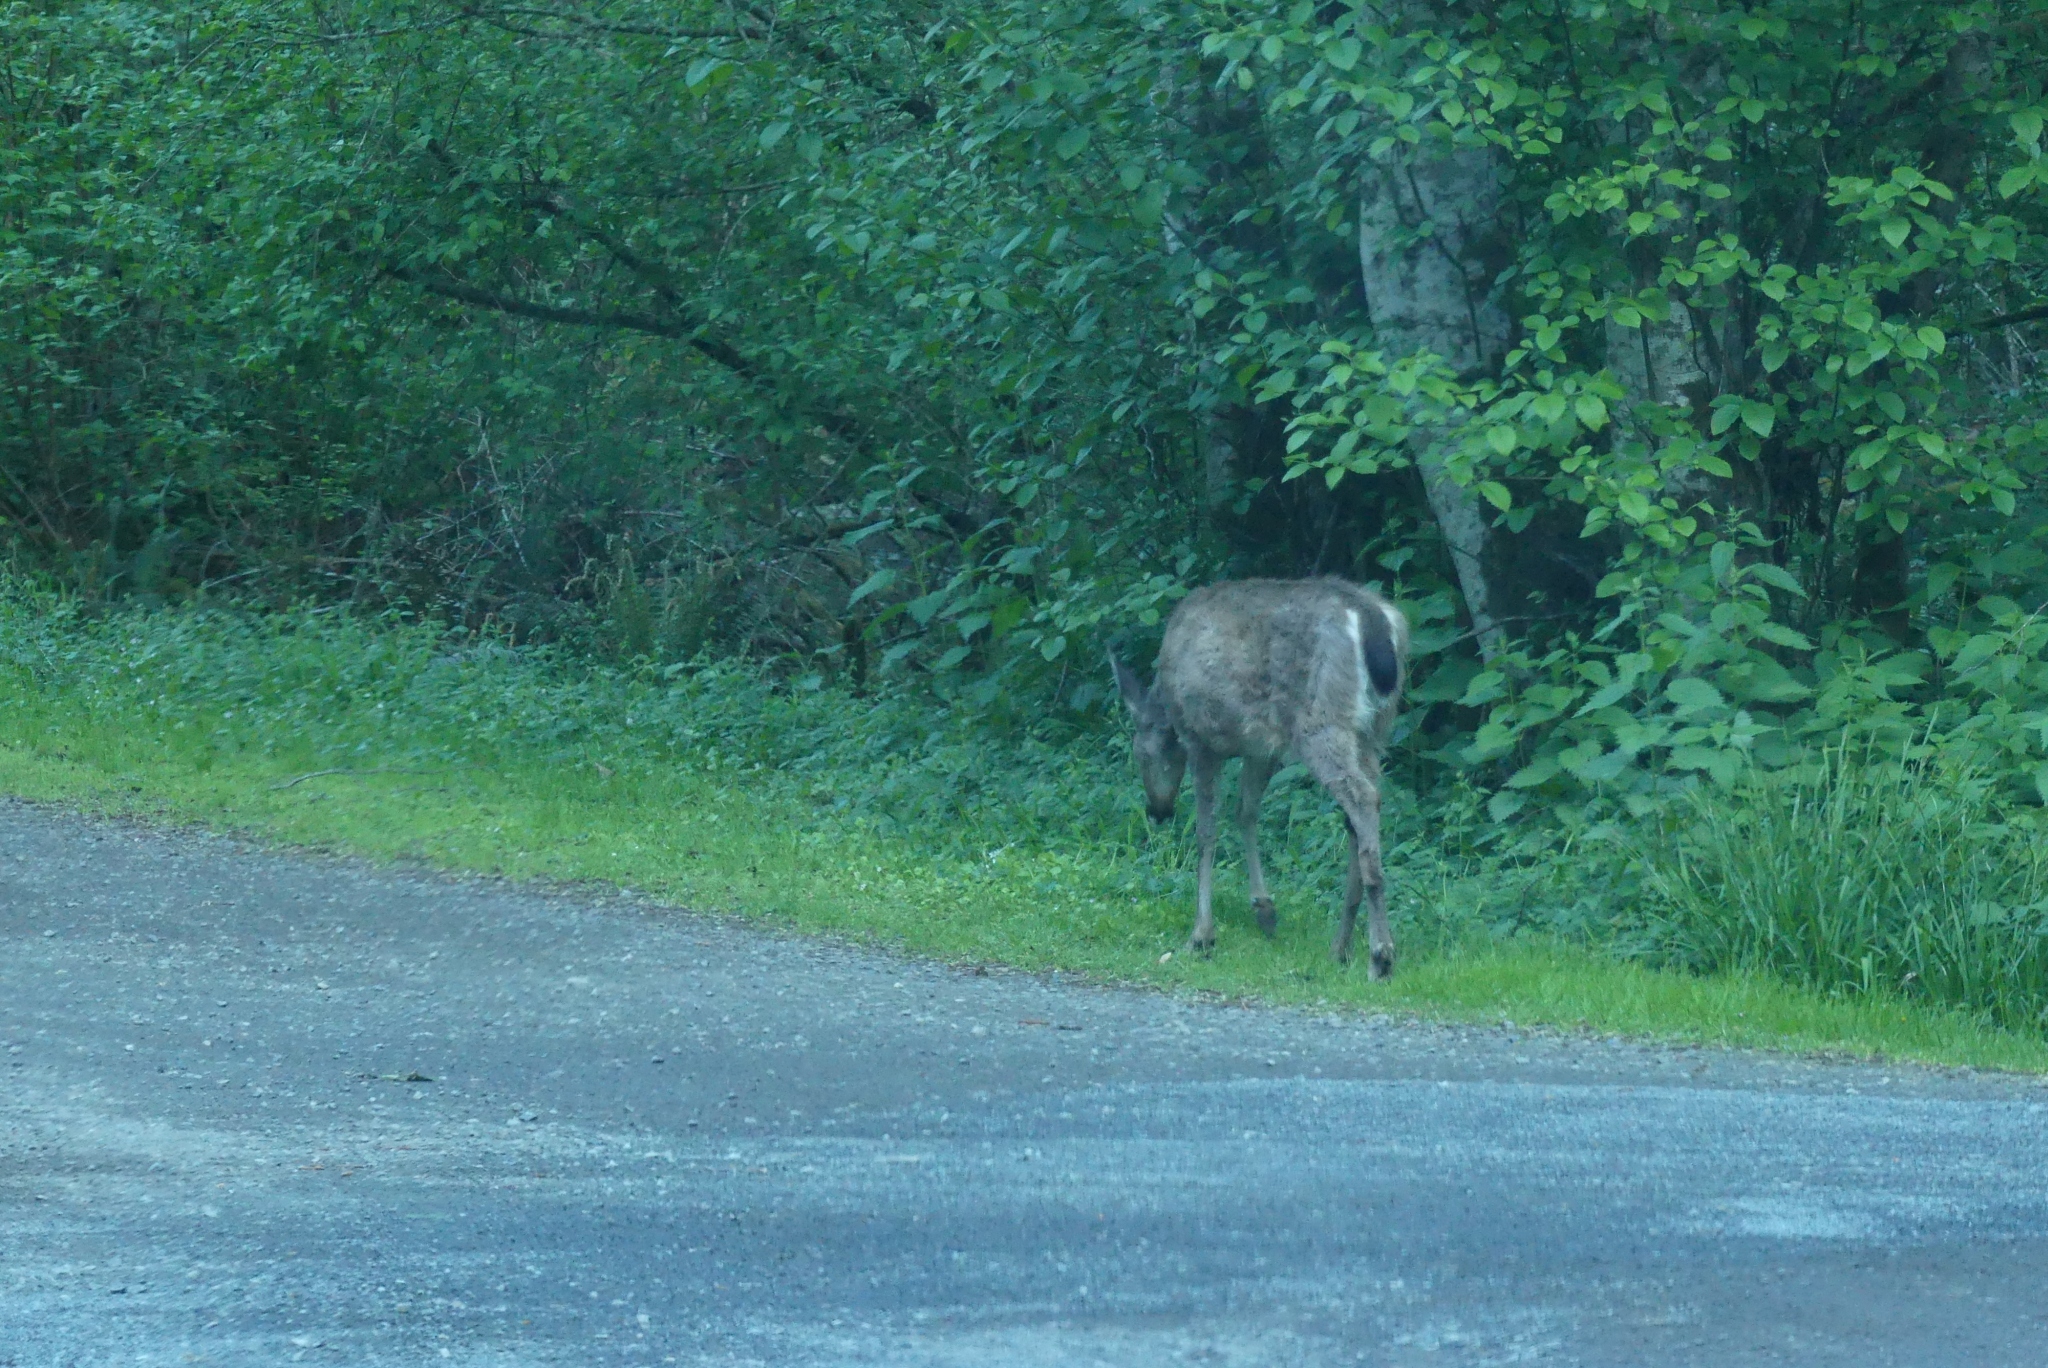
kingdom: Animalia
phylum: Chordata
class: Mammalia
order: Artiodactyla
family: Cervidae
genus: Odocoileus
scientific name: Odocoileus hemionus
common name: Mule deer
